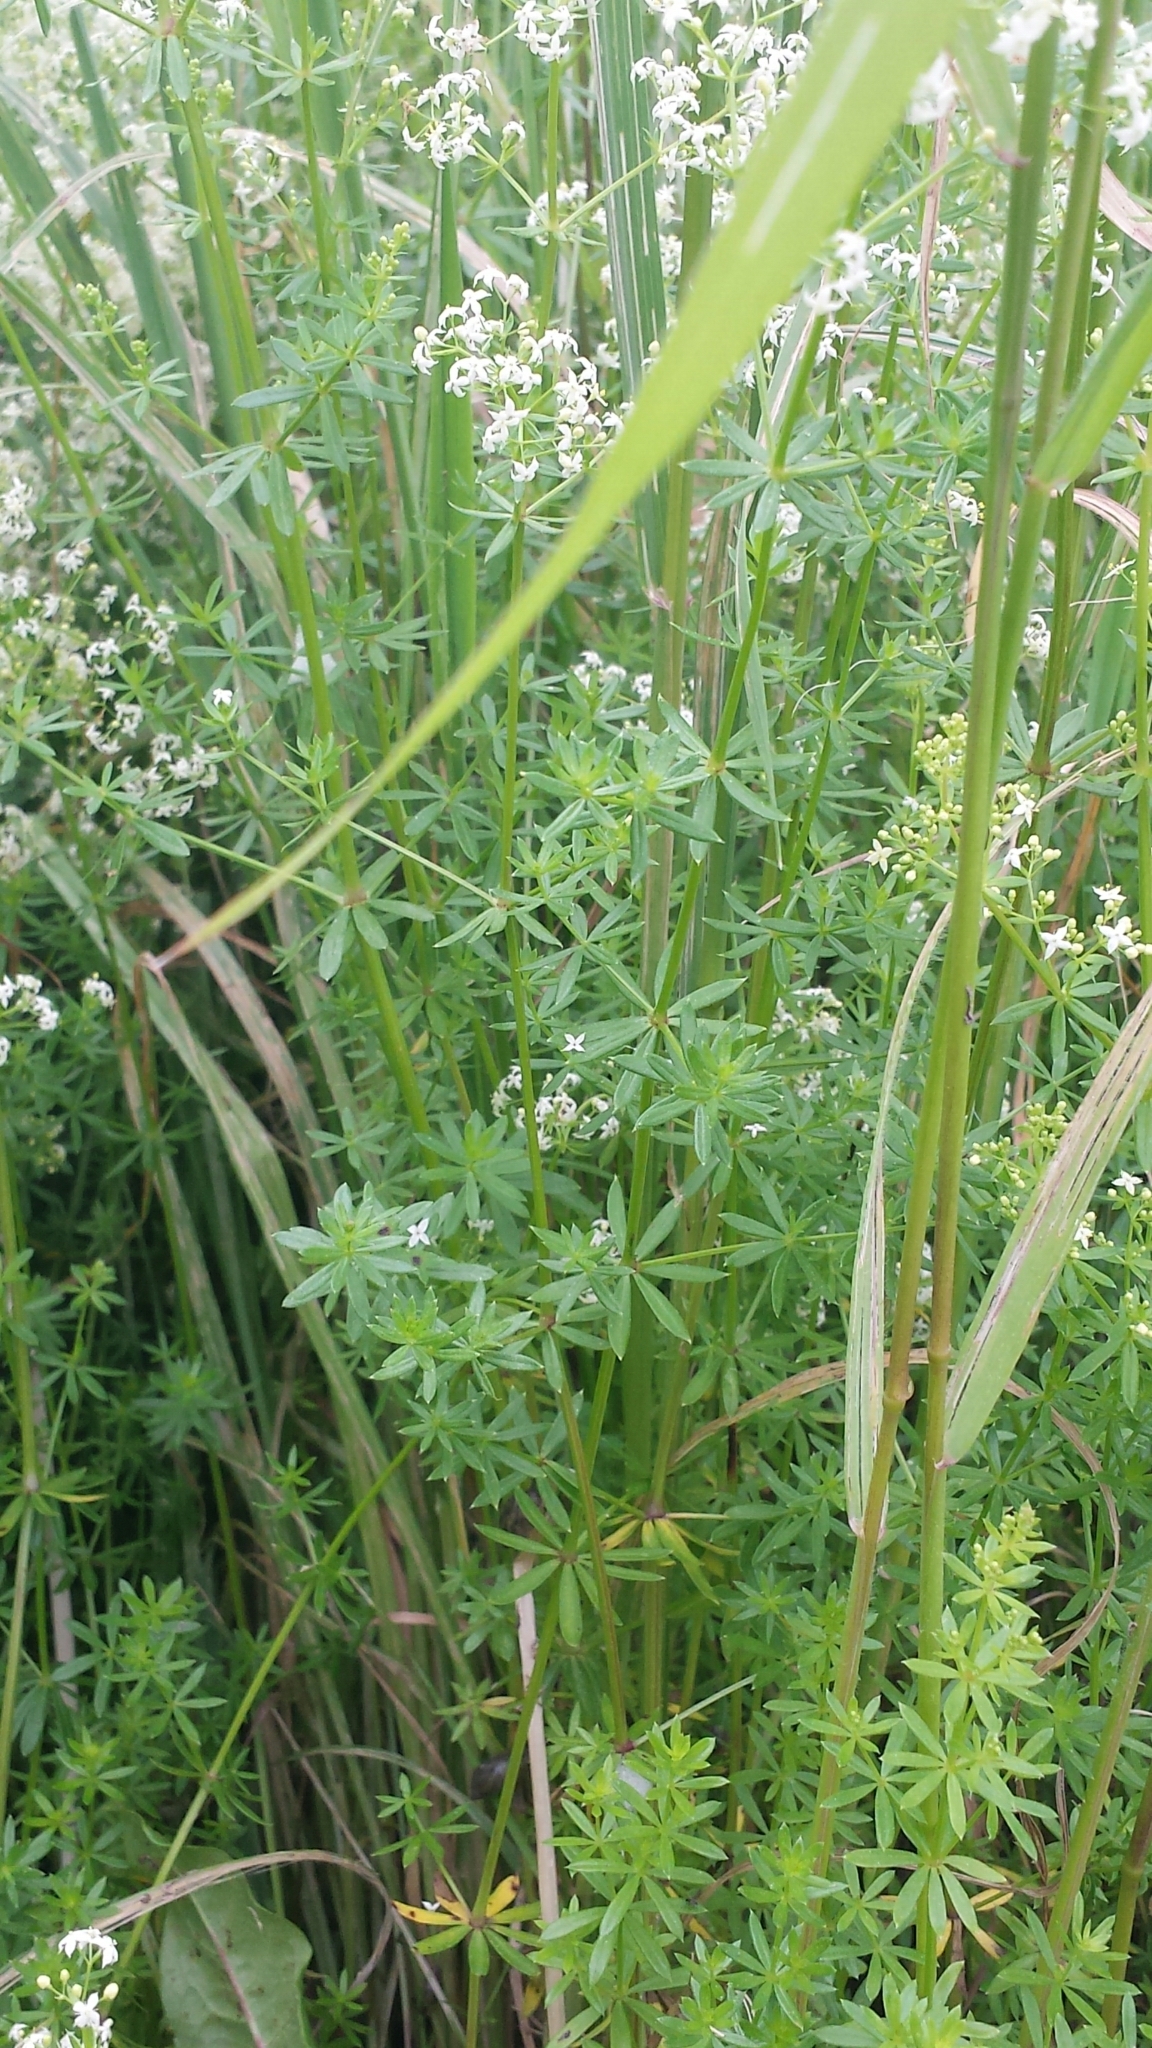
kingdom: Plantae
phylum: Tracheophyta
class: Magnoliopsida
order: Gentianales
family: Rubiaceae
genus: Galium
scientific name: Galium mollugo
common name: Hedge bedstraw
